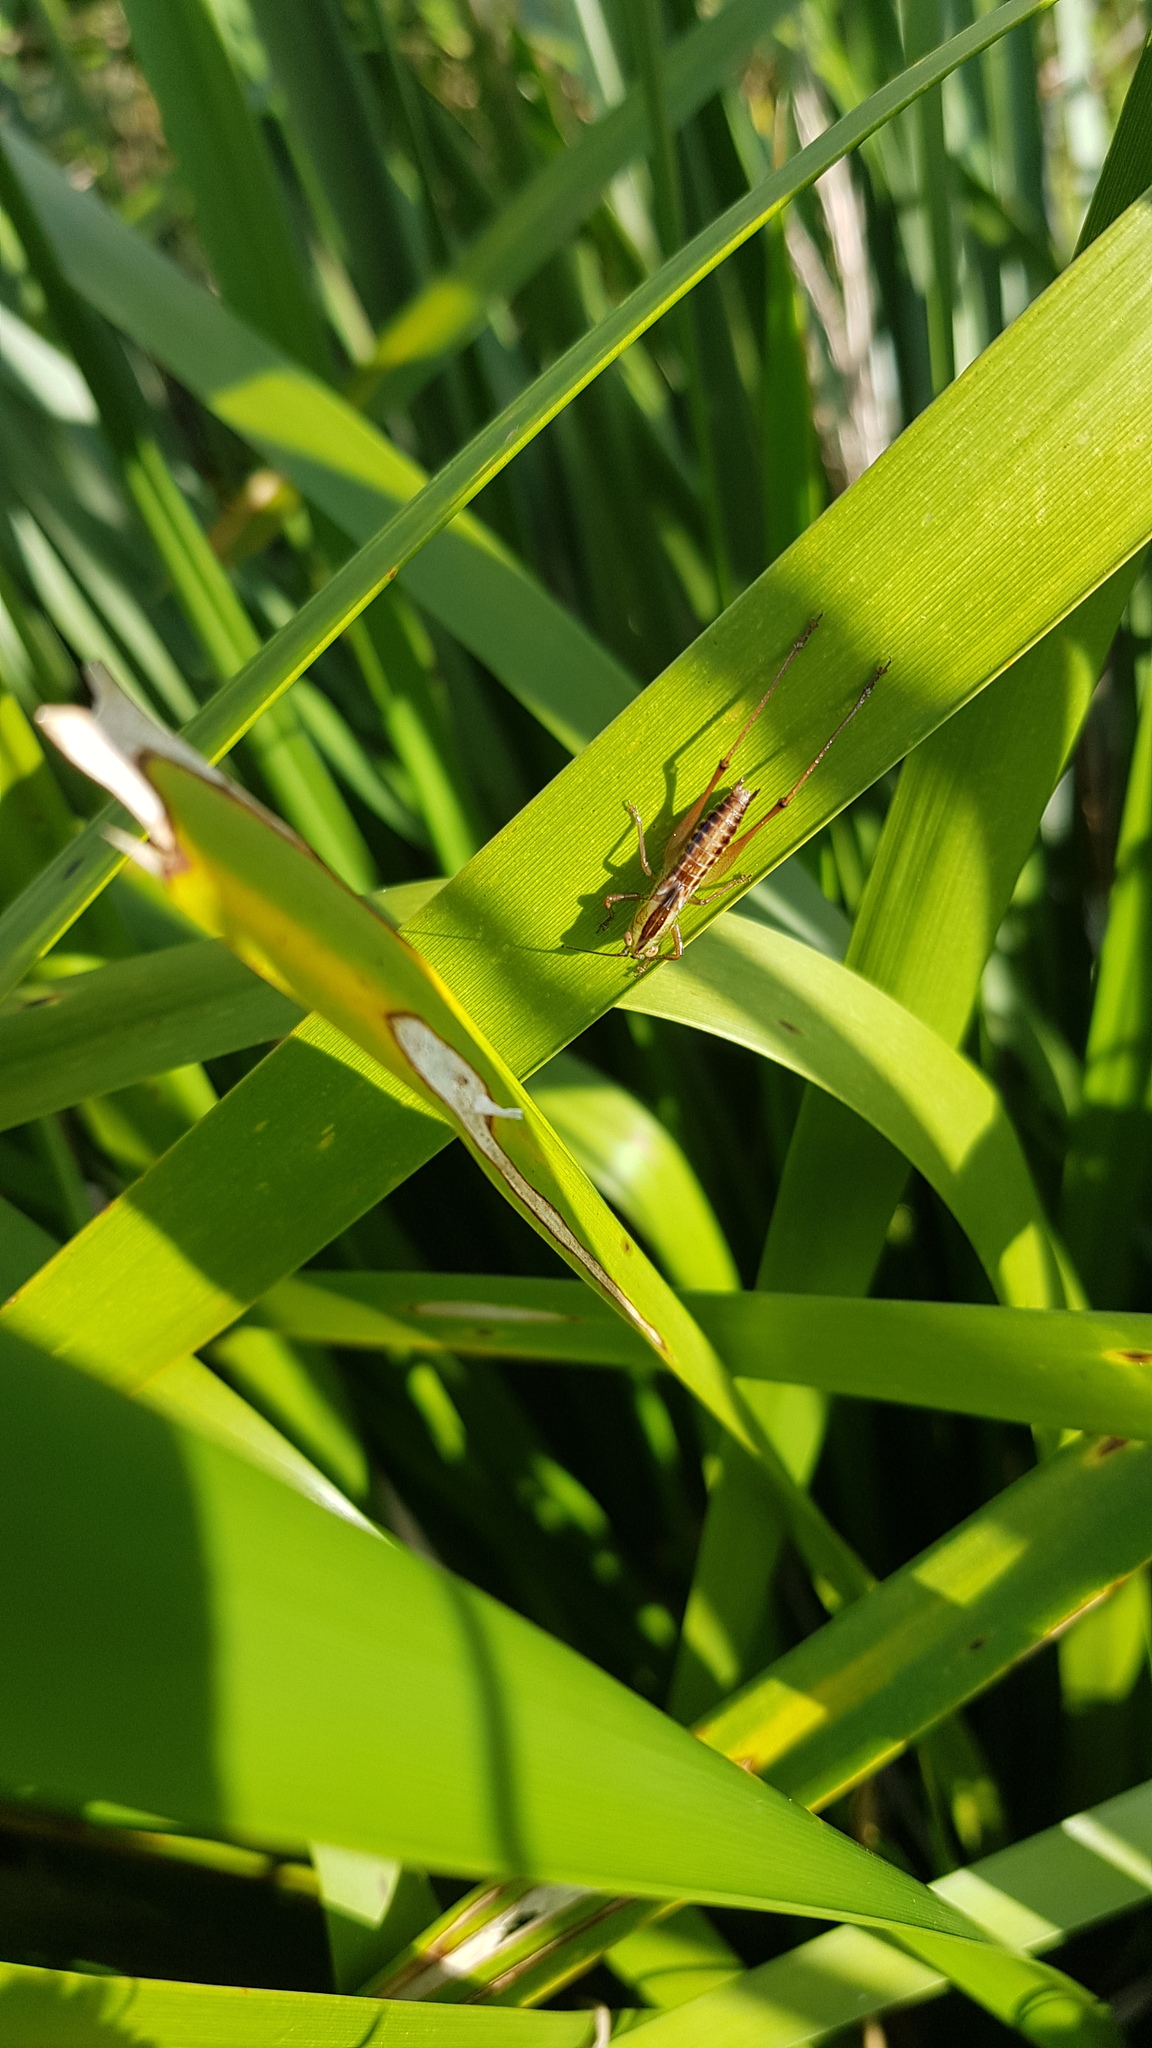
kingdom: Animalia
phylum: Arthropoda
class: Insecta
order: Orthoptera
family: Tettigoniidae
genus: Conocephalus
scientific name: Conocephalus semivittatus
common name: Blackish meadow katydid
